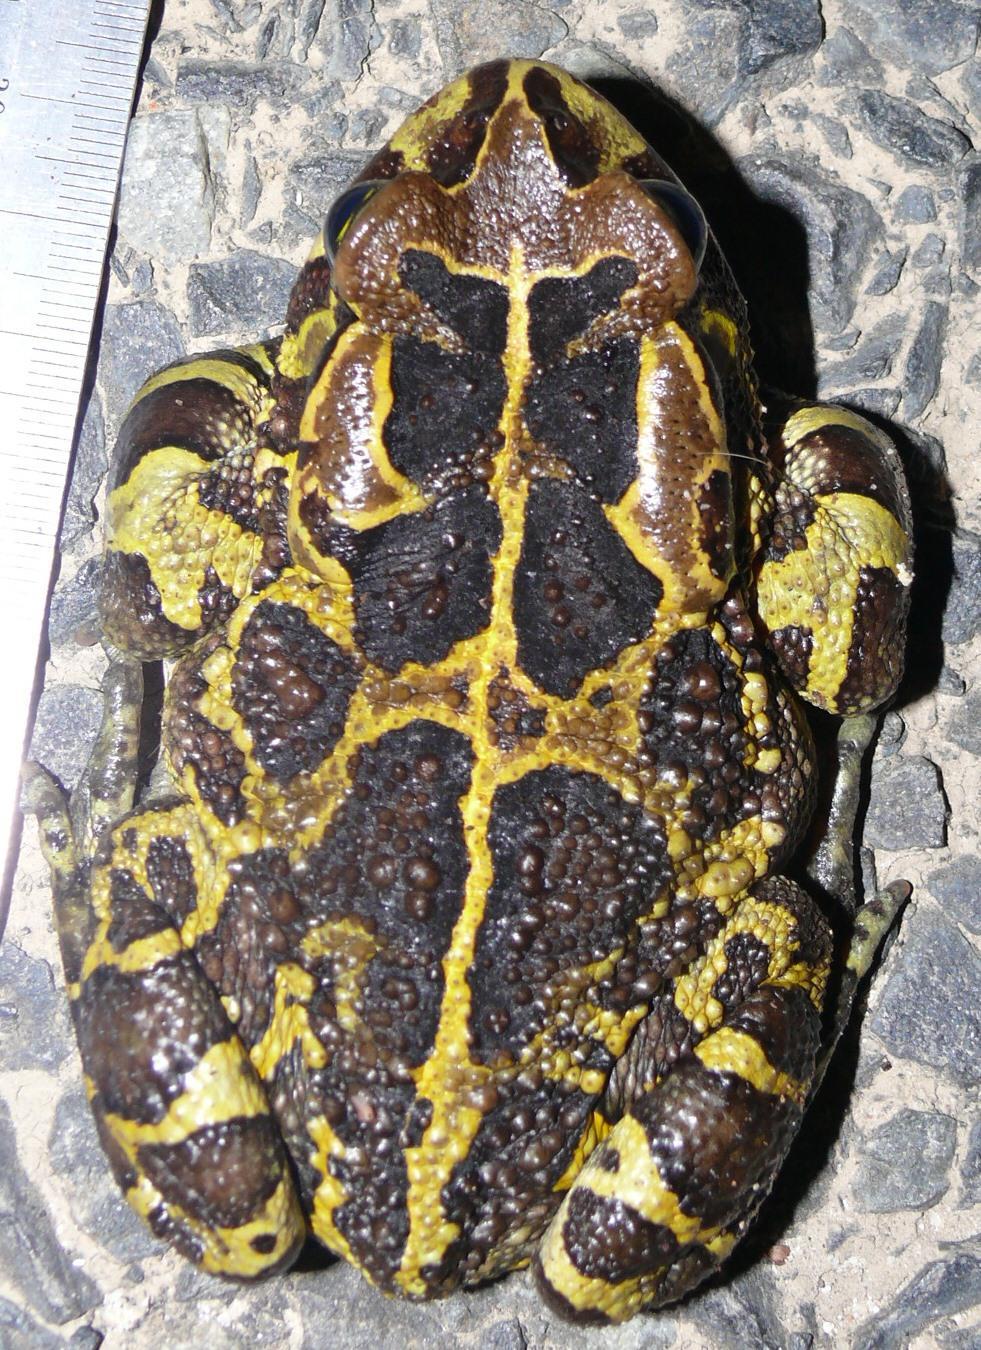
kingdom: Animalia
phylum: Chordata
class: Amphibia
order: Anura
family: Bufonidae
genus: Sclerophrys
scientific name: Sclerophrys pantherina
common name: Panther toad
